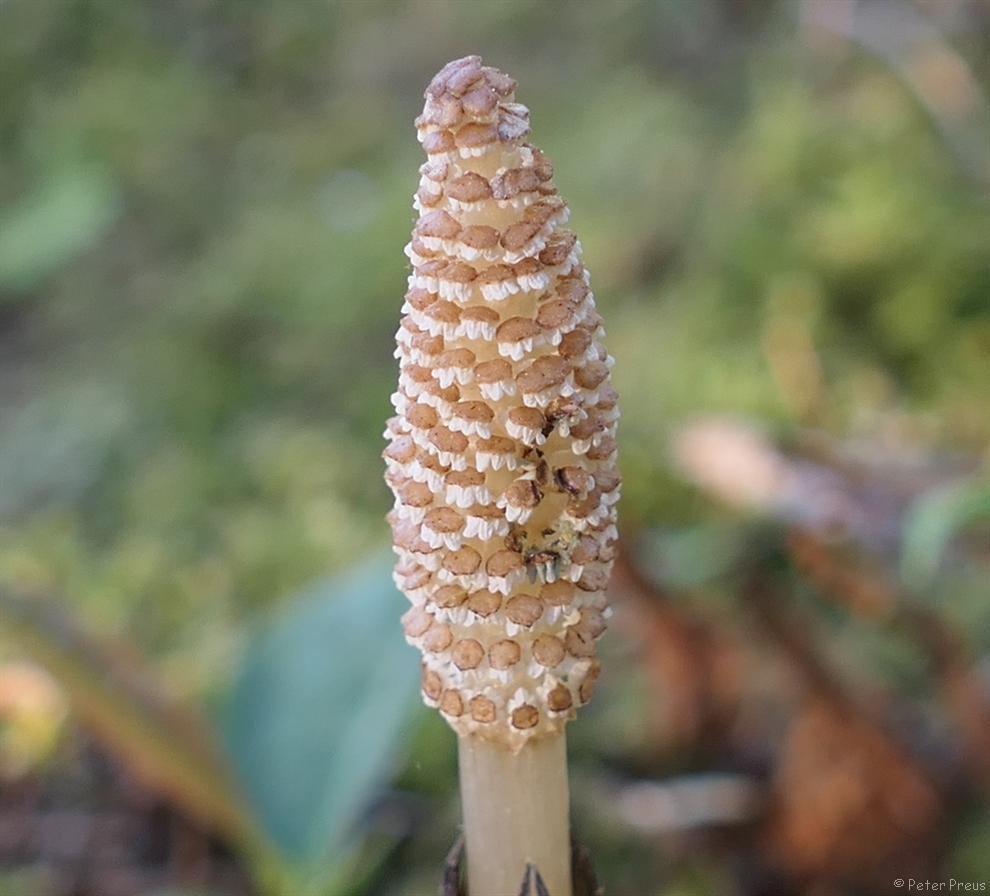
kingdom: Plantae
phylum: Tracheophyta
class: Polypodiopsida
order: Equisetales
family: Equisetaceae
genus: Equisetum
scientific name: Equisetum arvense
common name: Field horsetail
